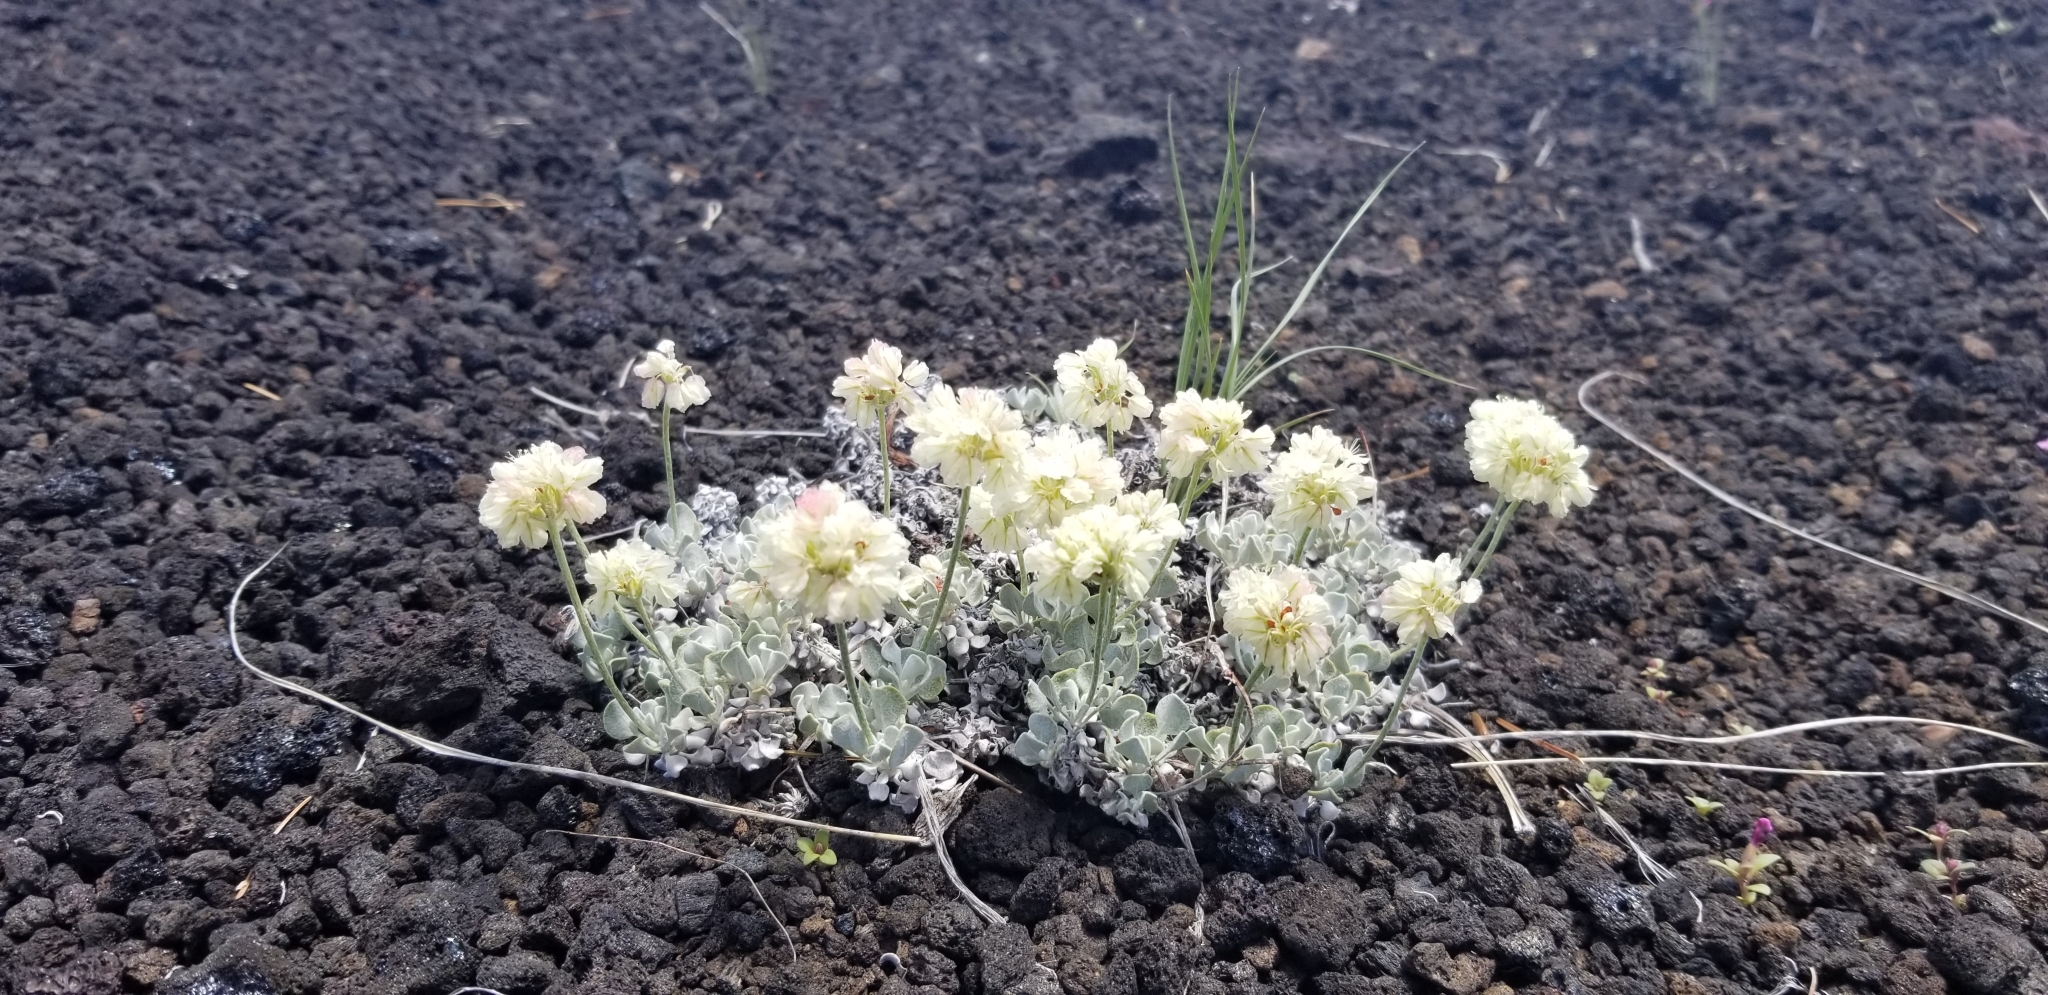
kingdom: Plantae
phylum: Tracheophyta
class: Magnoliopsida
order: Caryophyllales
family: Polygonaceae
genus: Eriogonum
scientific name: Eriogonum ovalifolium
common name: Cushion buckwheat
